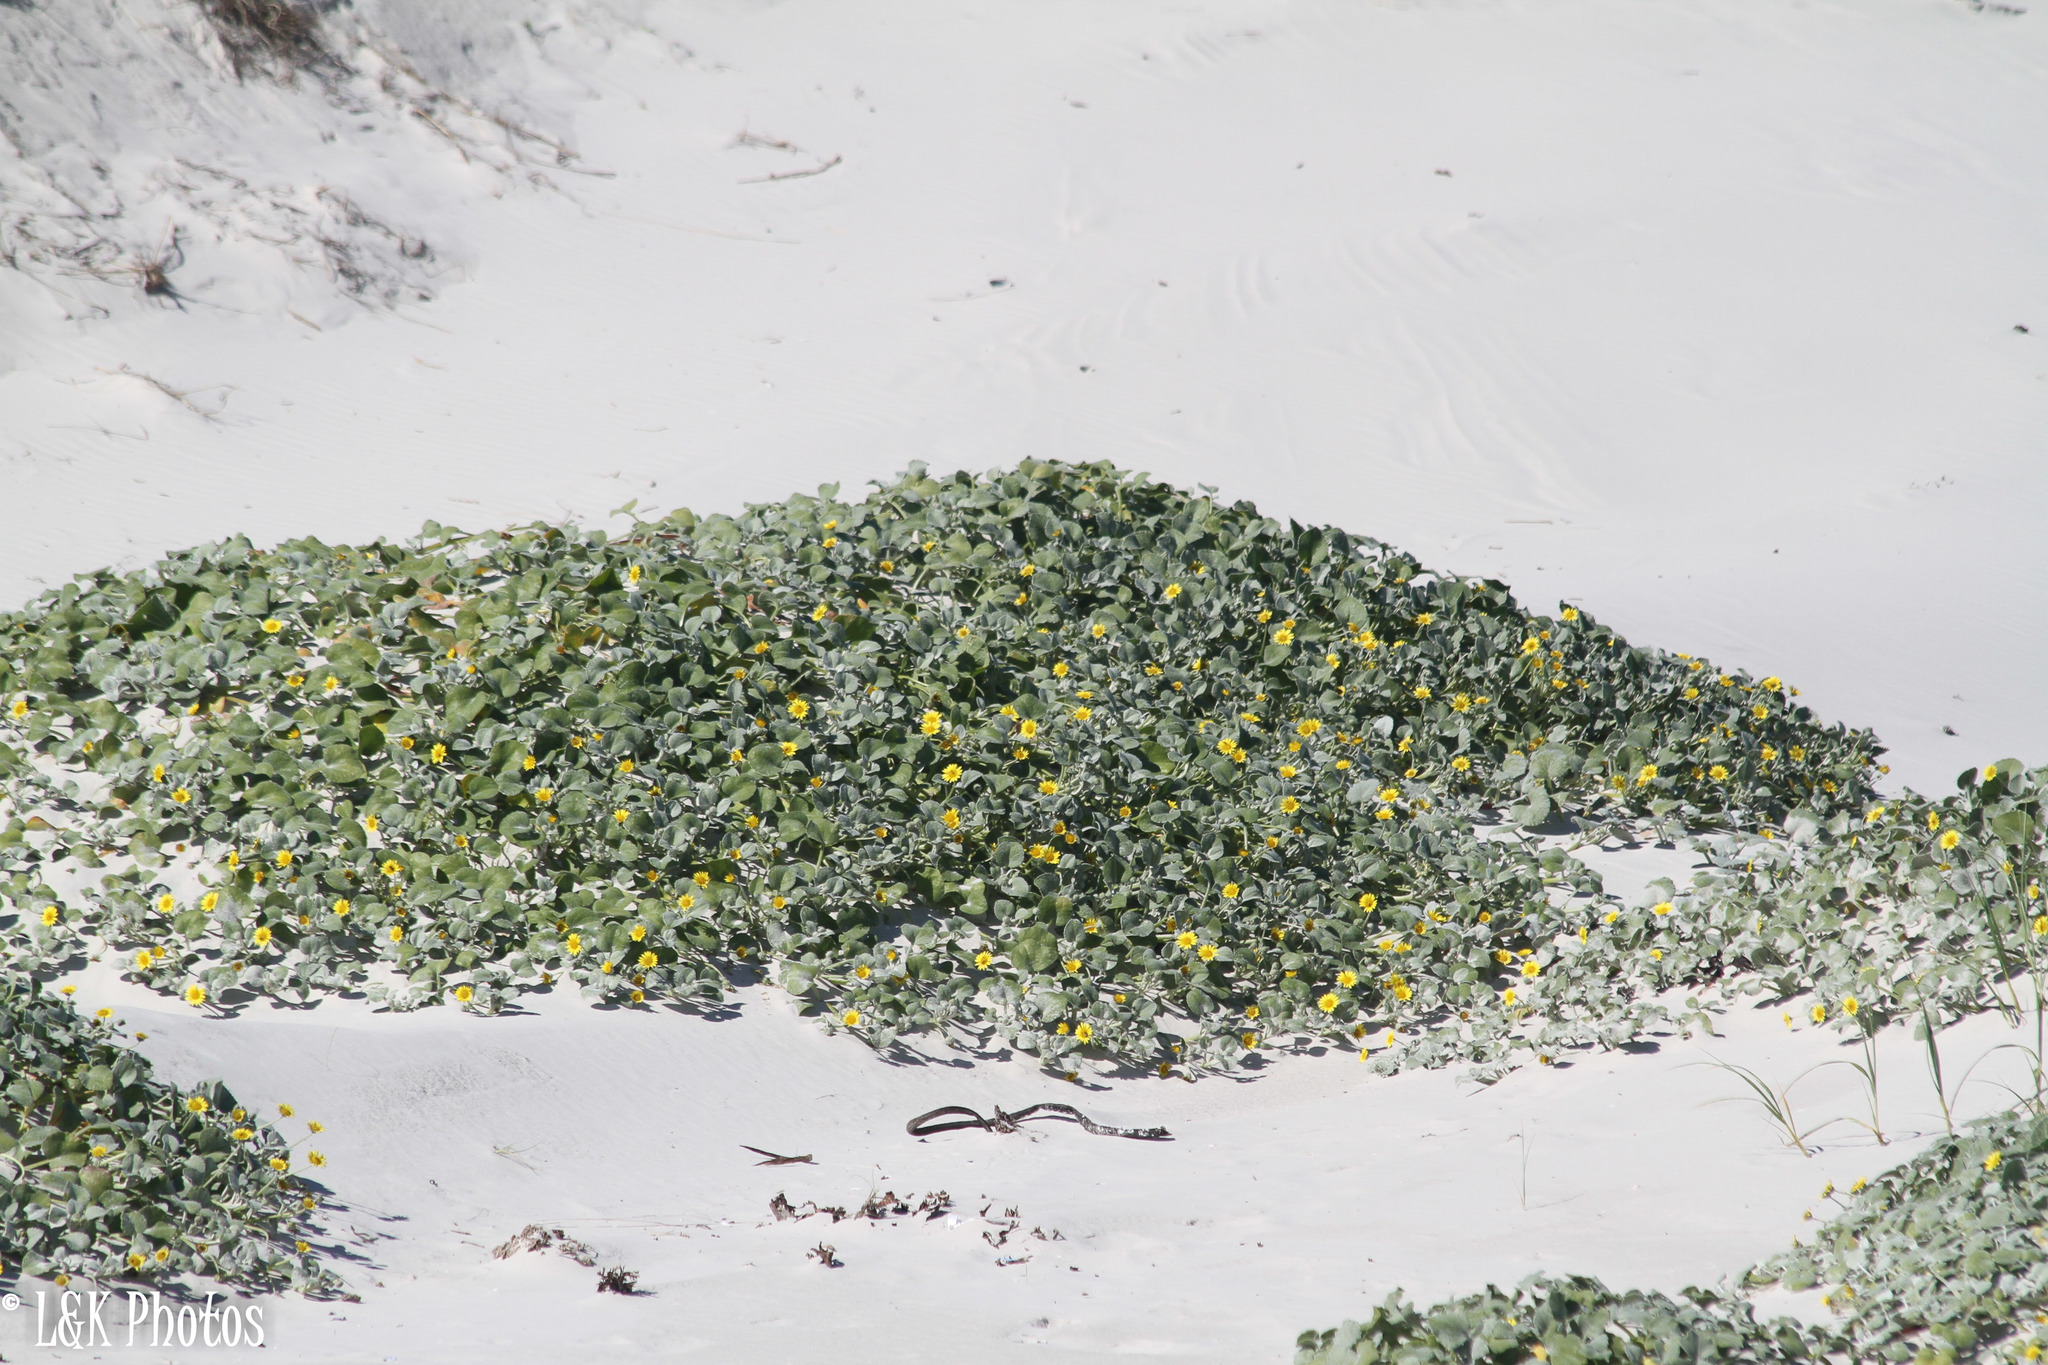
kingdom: Plantae
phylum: Tracheophyta
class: Magnoliopsida
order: Asterales
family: Asteraceae
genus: Arctotheca
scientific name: Arctotheca populifolia
